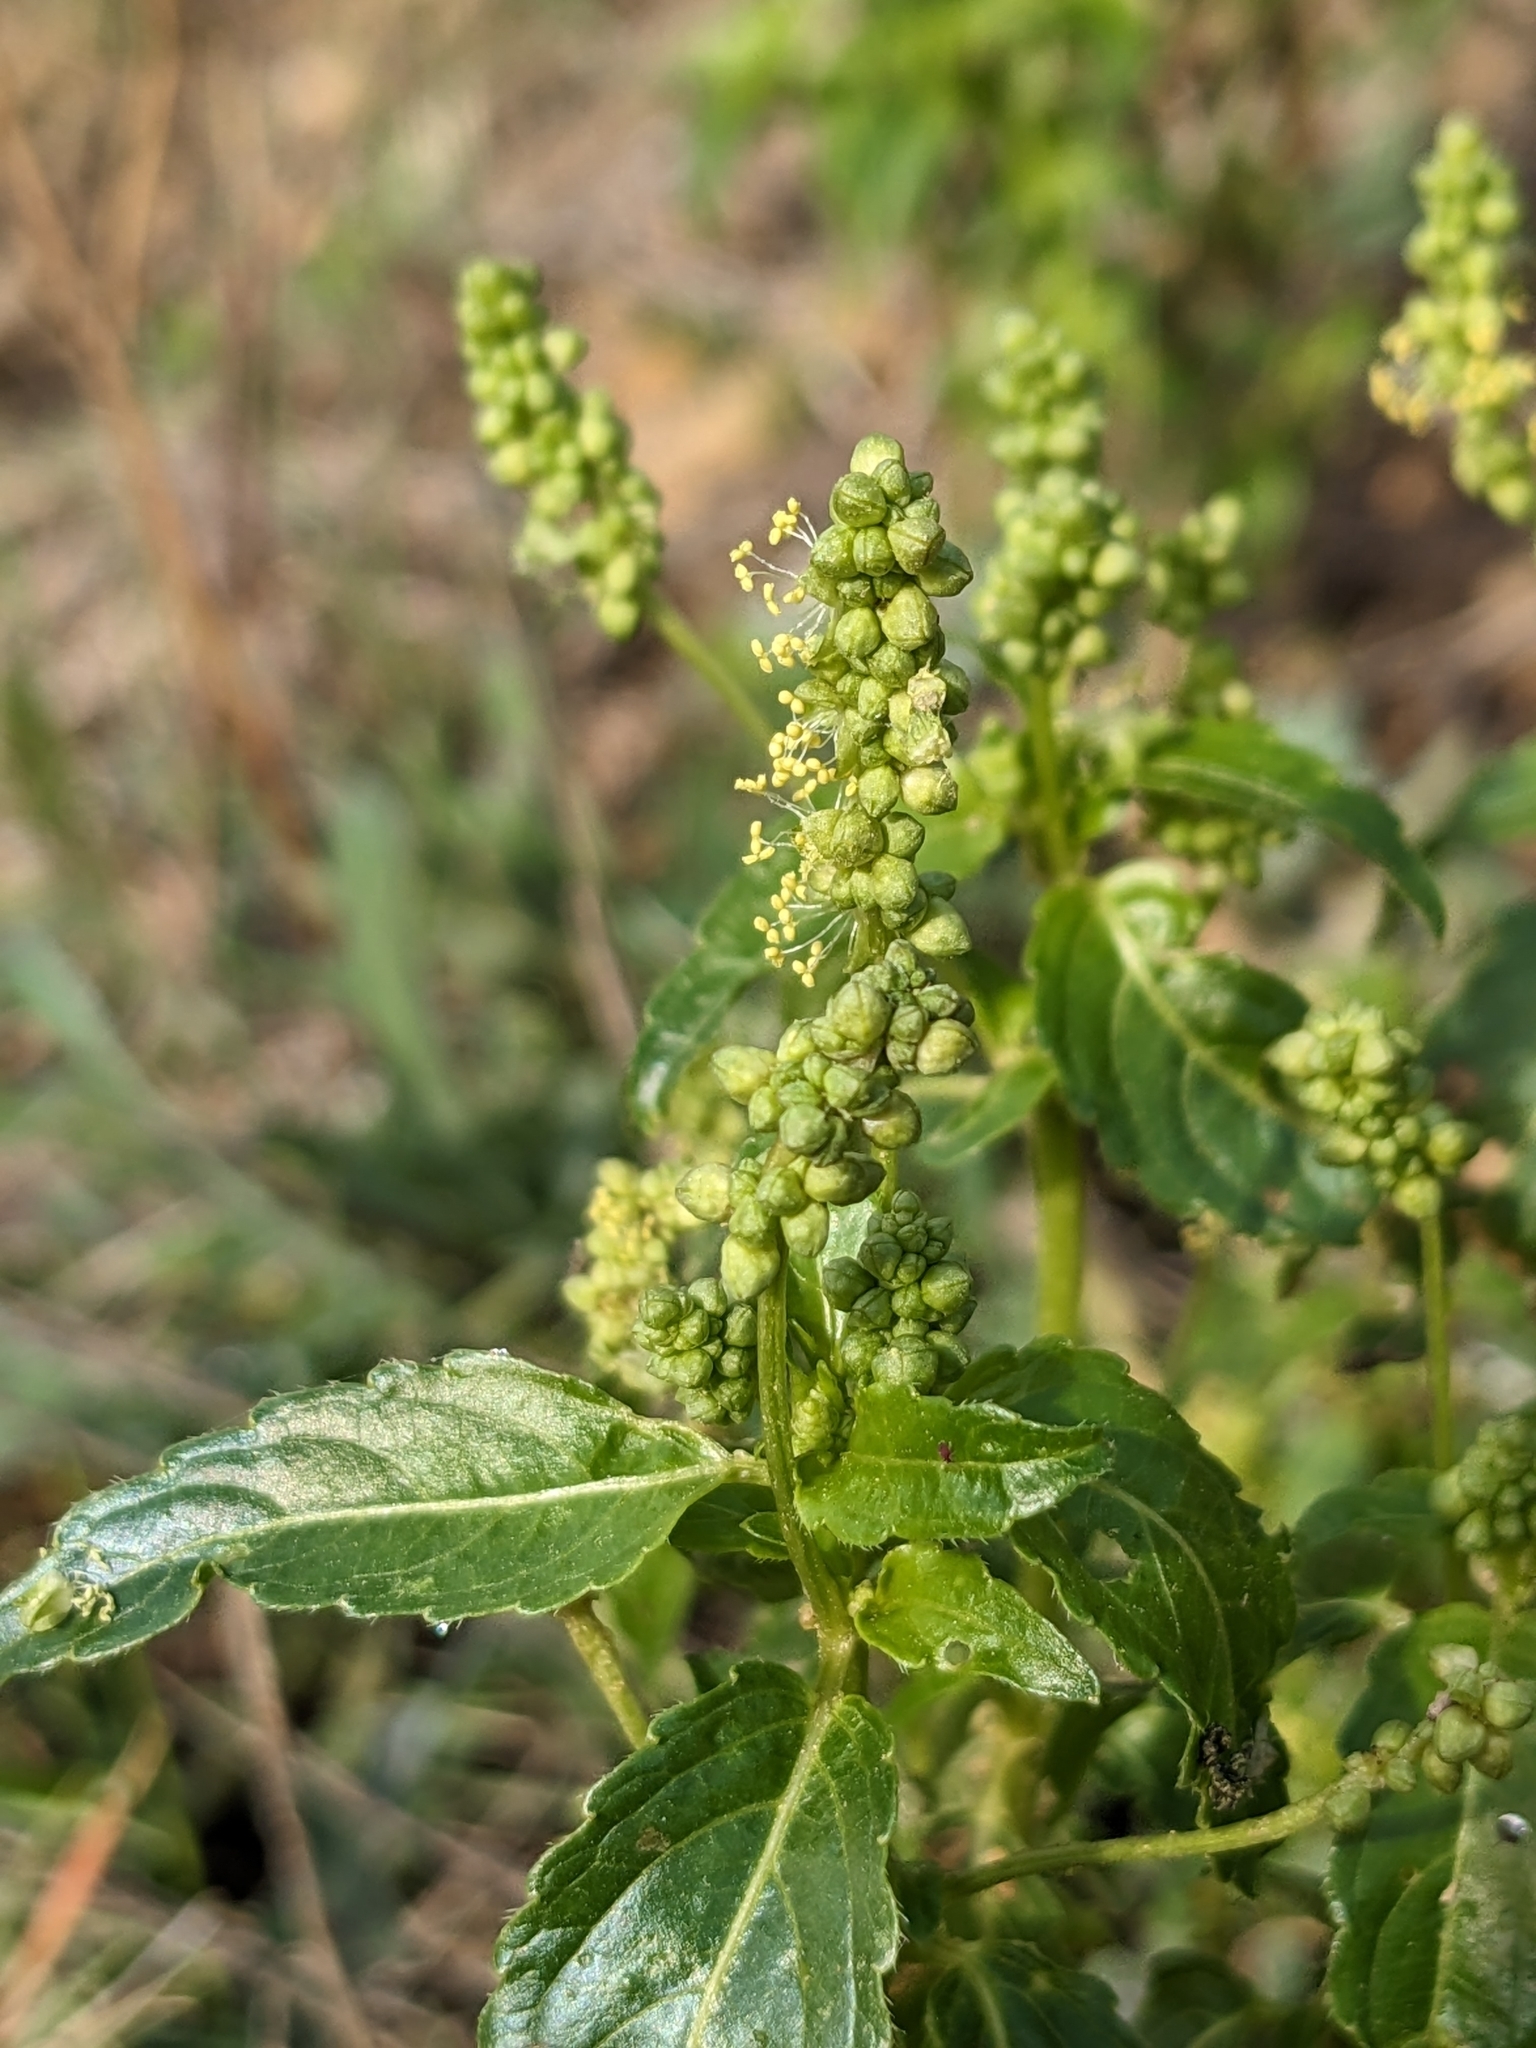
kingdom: Plantae
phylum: Tracheophyta
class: Magnoliopsida
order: Malpighiales
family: Euphorbiaceae
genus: Mercurialis
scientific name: Mercurialis annua
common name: Annual mercury
